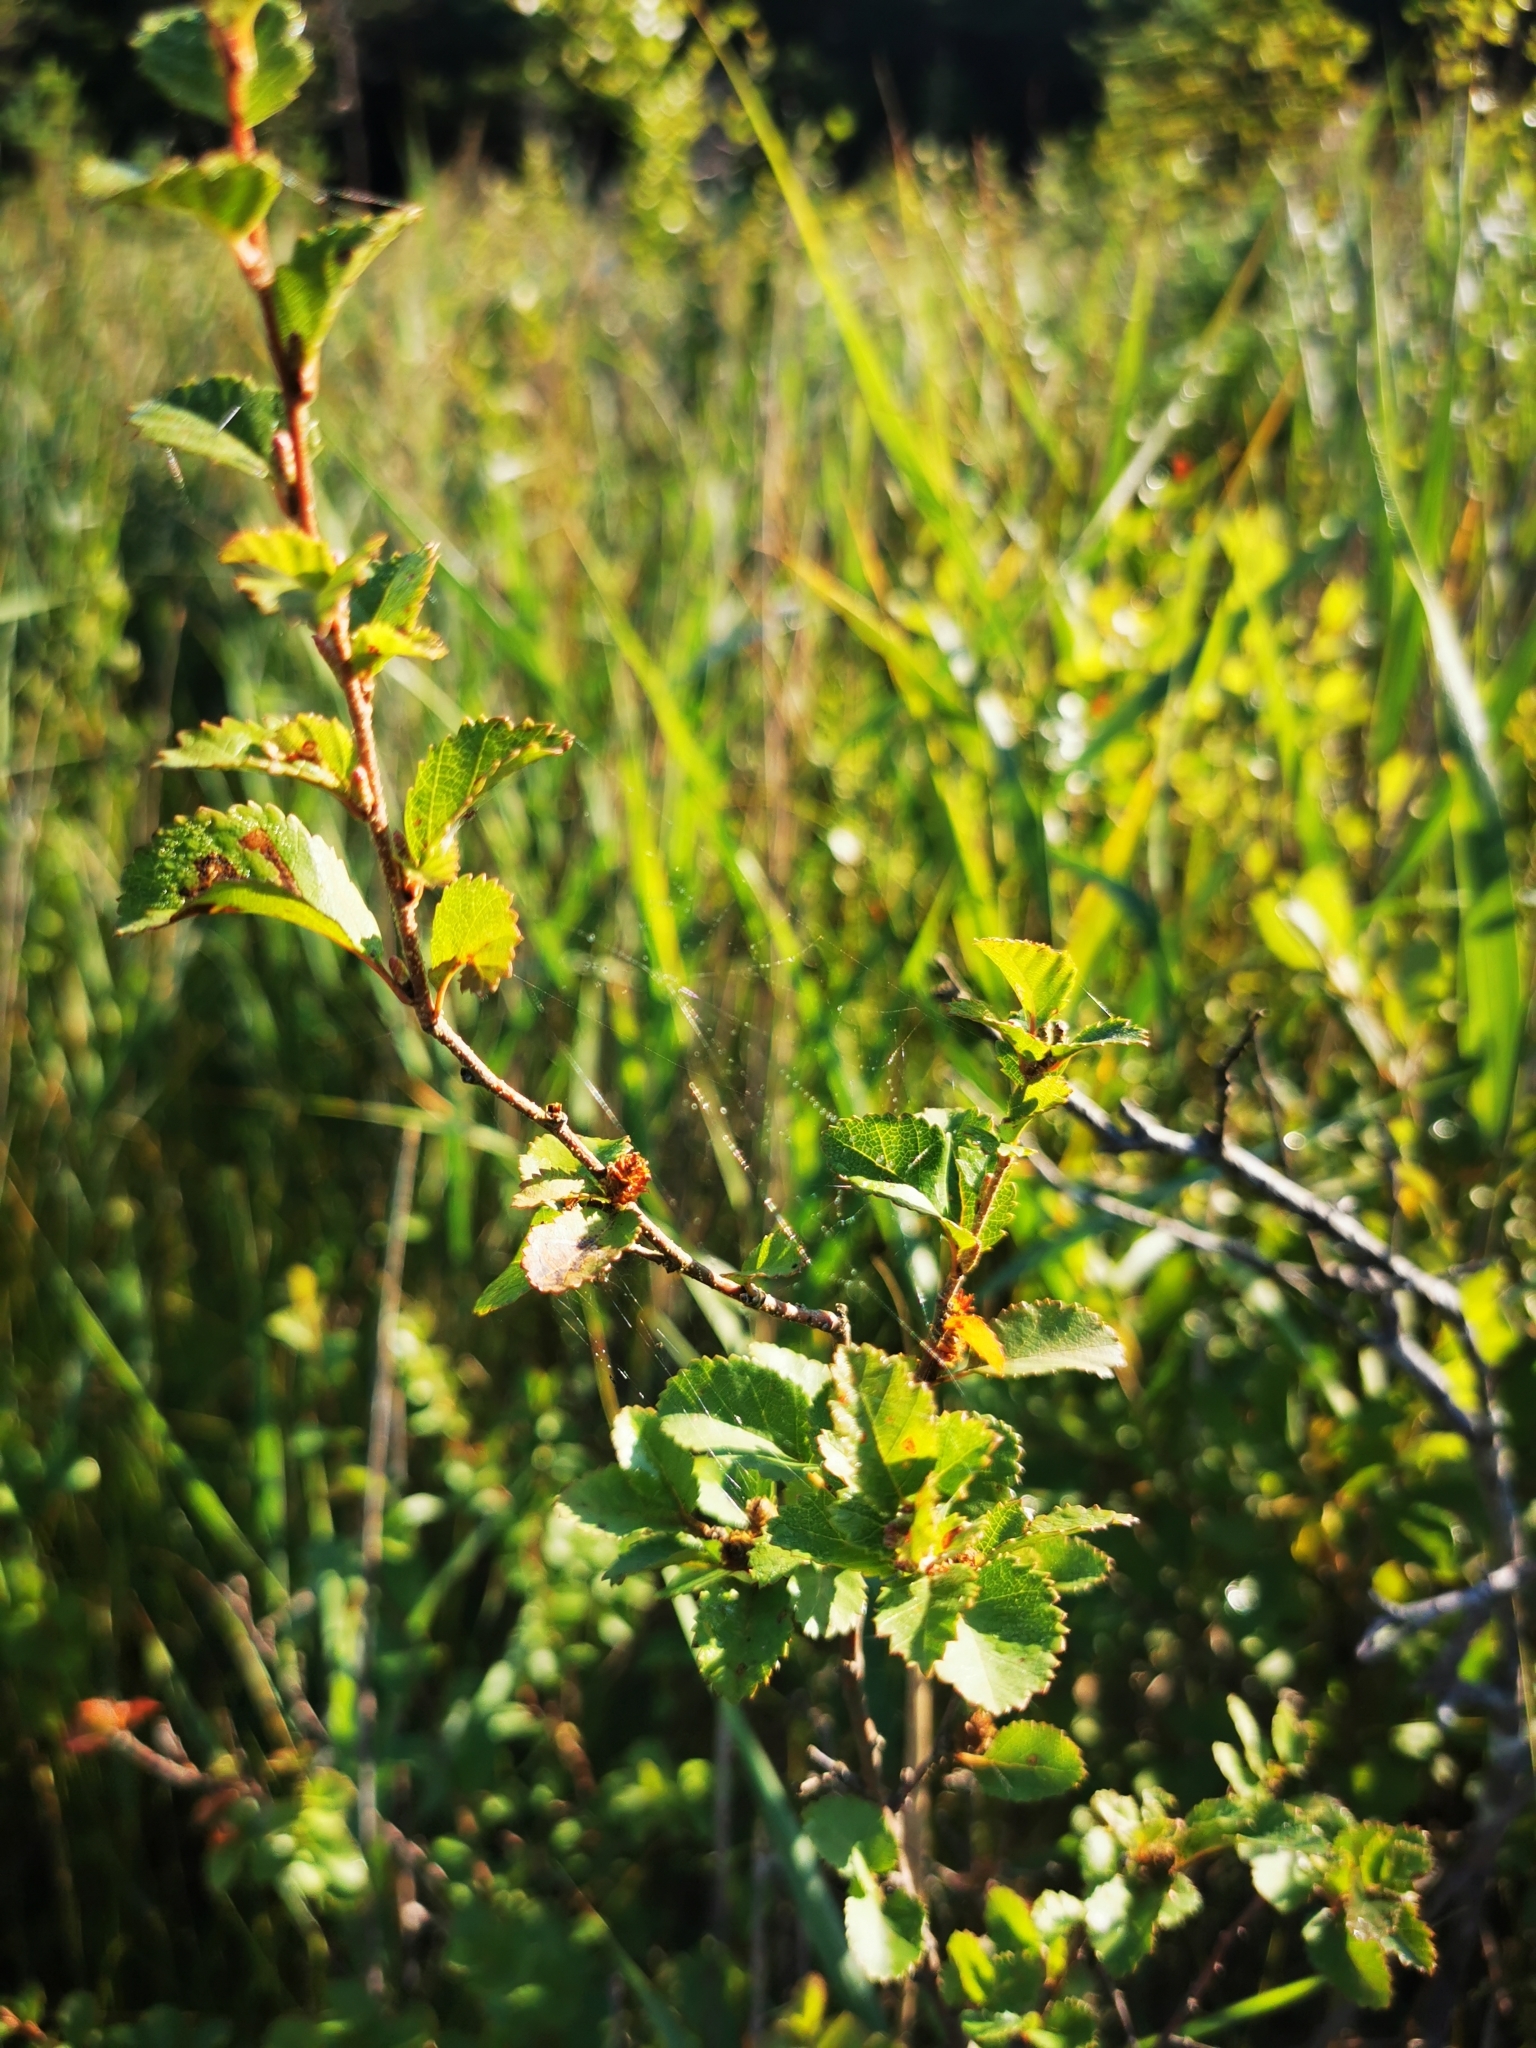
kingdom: Plantae
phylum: Tracheophyta
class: Magnoliopsida
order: Fagales
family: Betulaceae
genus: Betula
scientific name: Betula humilis
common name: Shrubby birch
